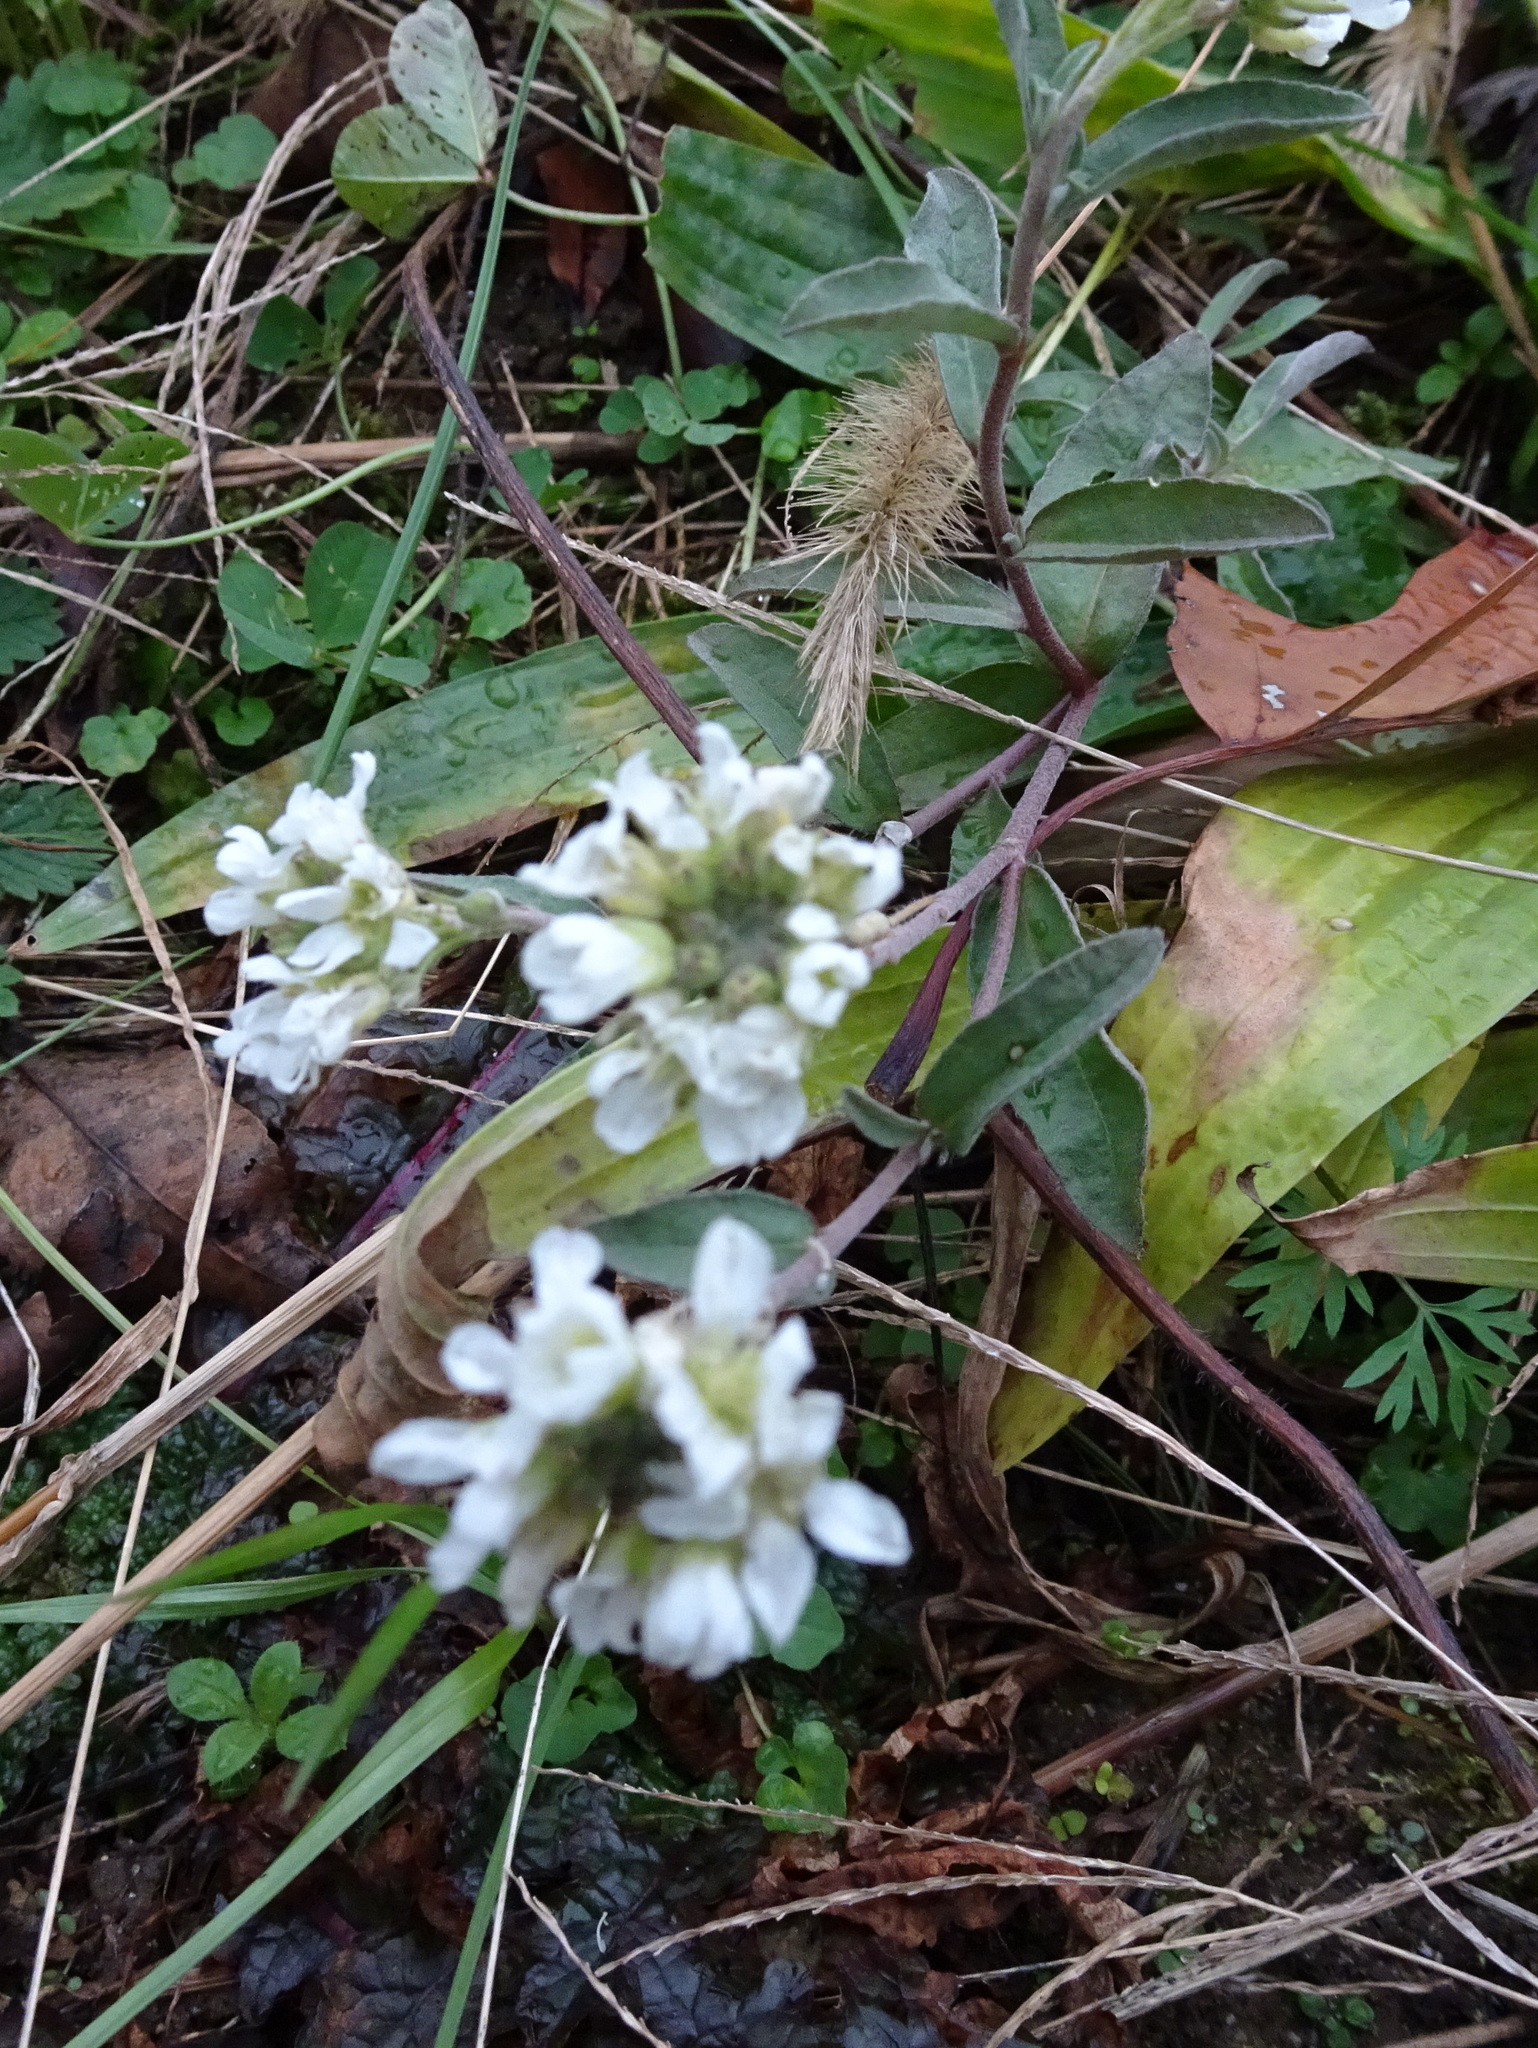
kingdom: Plantae
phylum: Tracheophyta
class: Magnoliopsida
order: Brassicales
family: Brassicaceae
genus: Berteroa
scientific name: Berteroa incana
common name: Hoary alison
